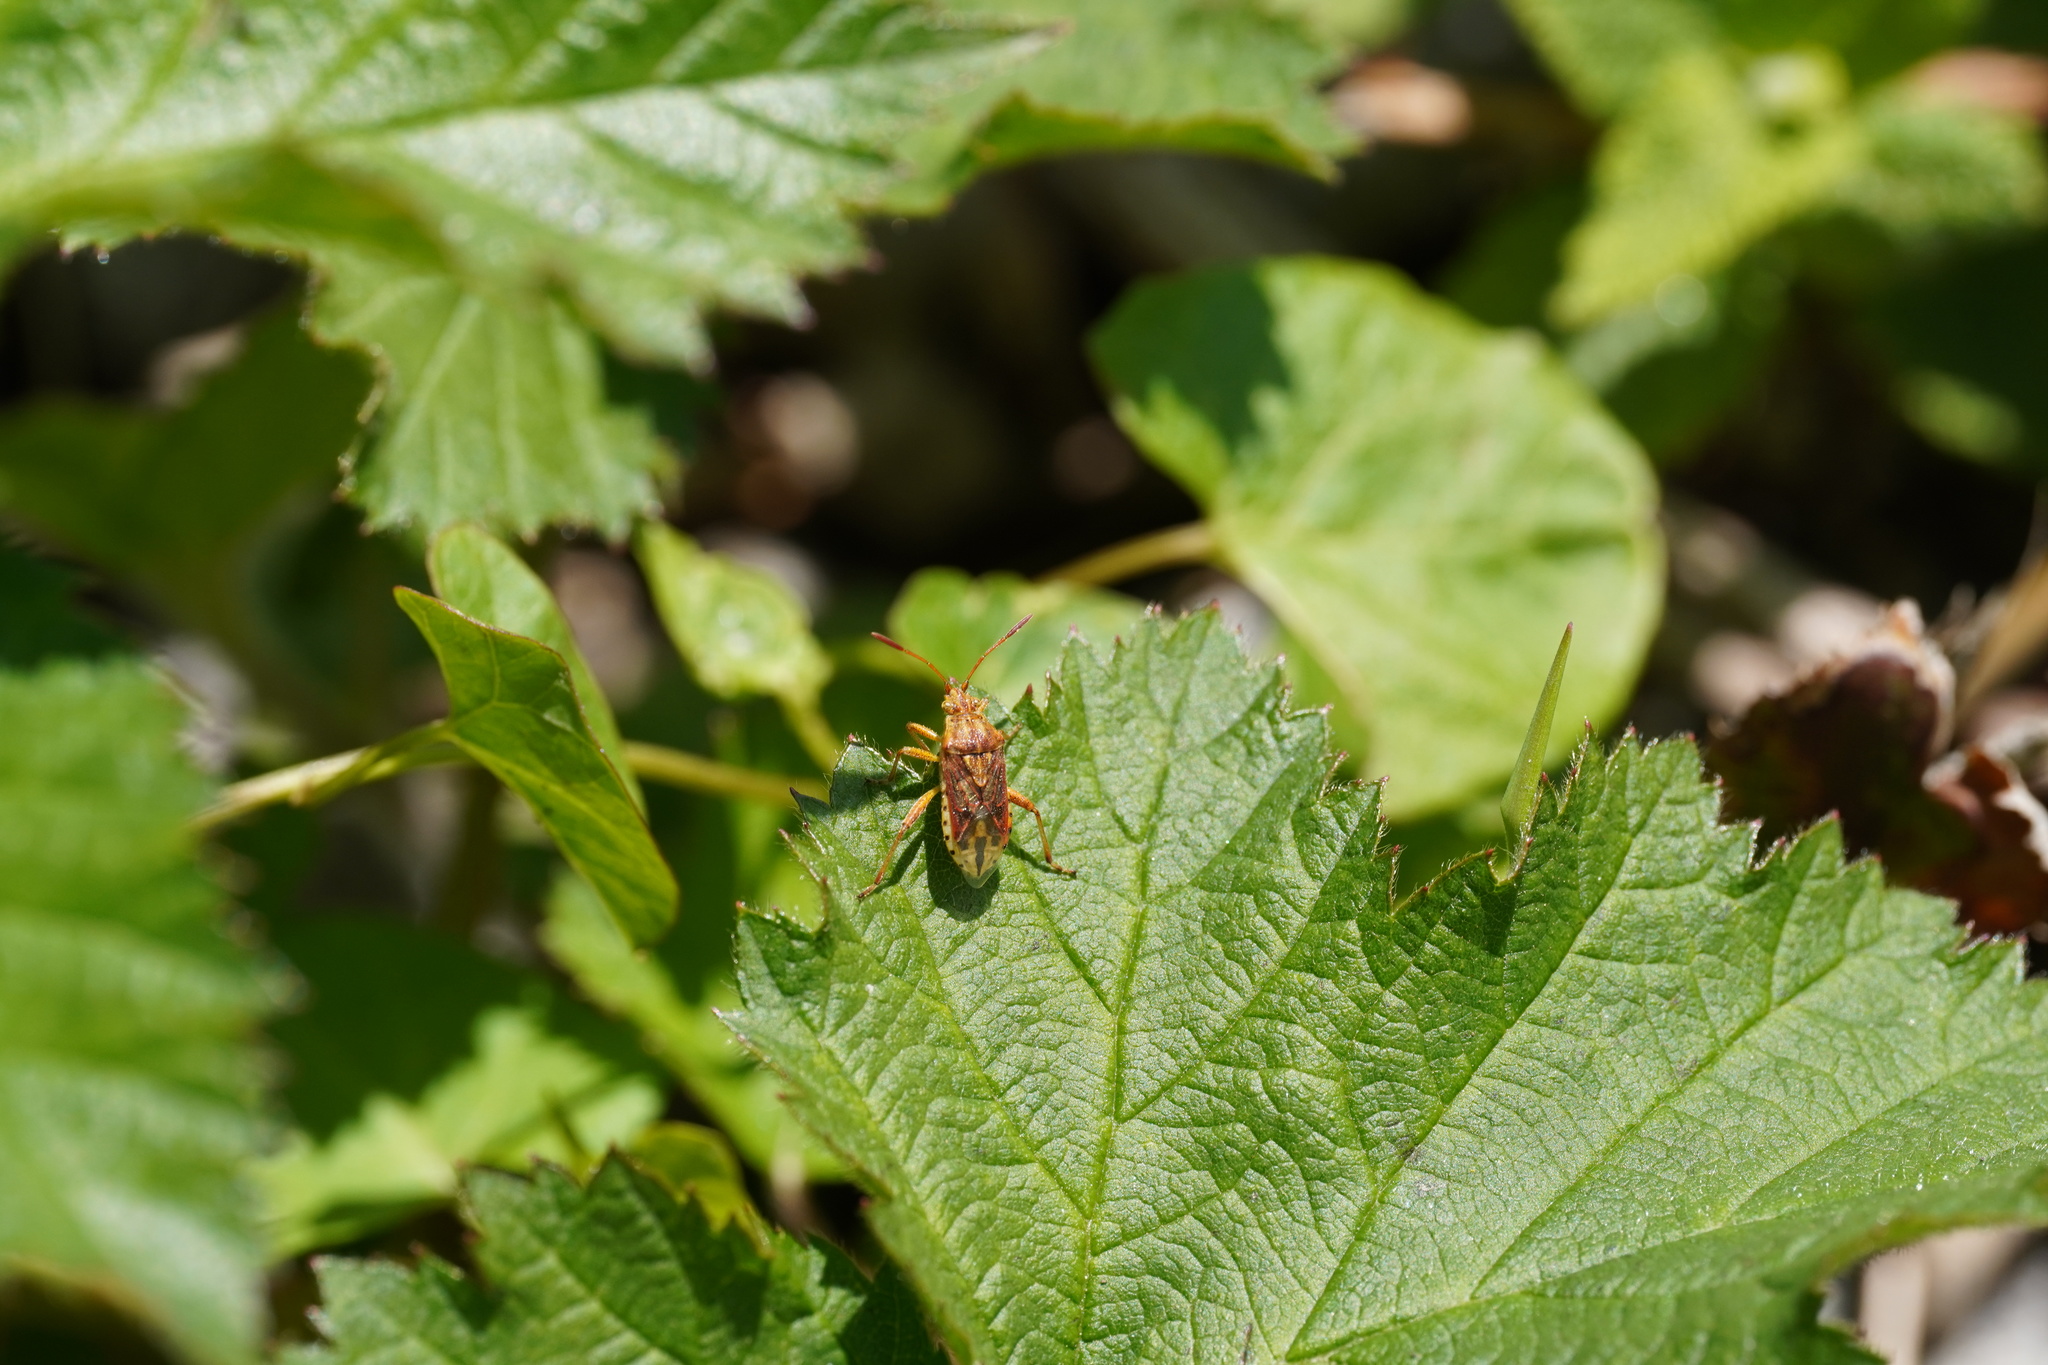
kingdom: Animalia
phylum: Arthropoda
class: Insecta
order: Hemiptera
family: Rhopalidae
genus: Stictopleurus
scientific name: Stictopleurus abutilon
